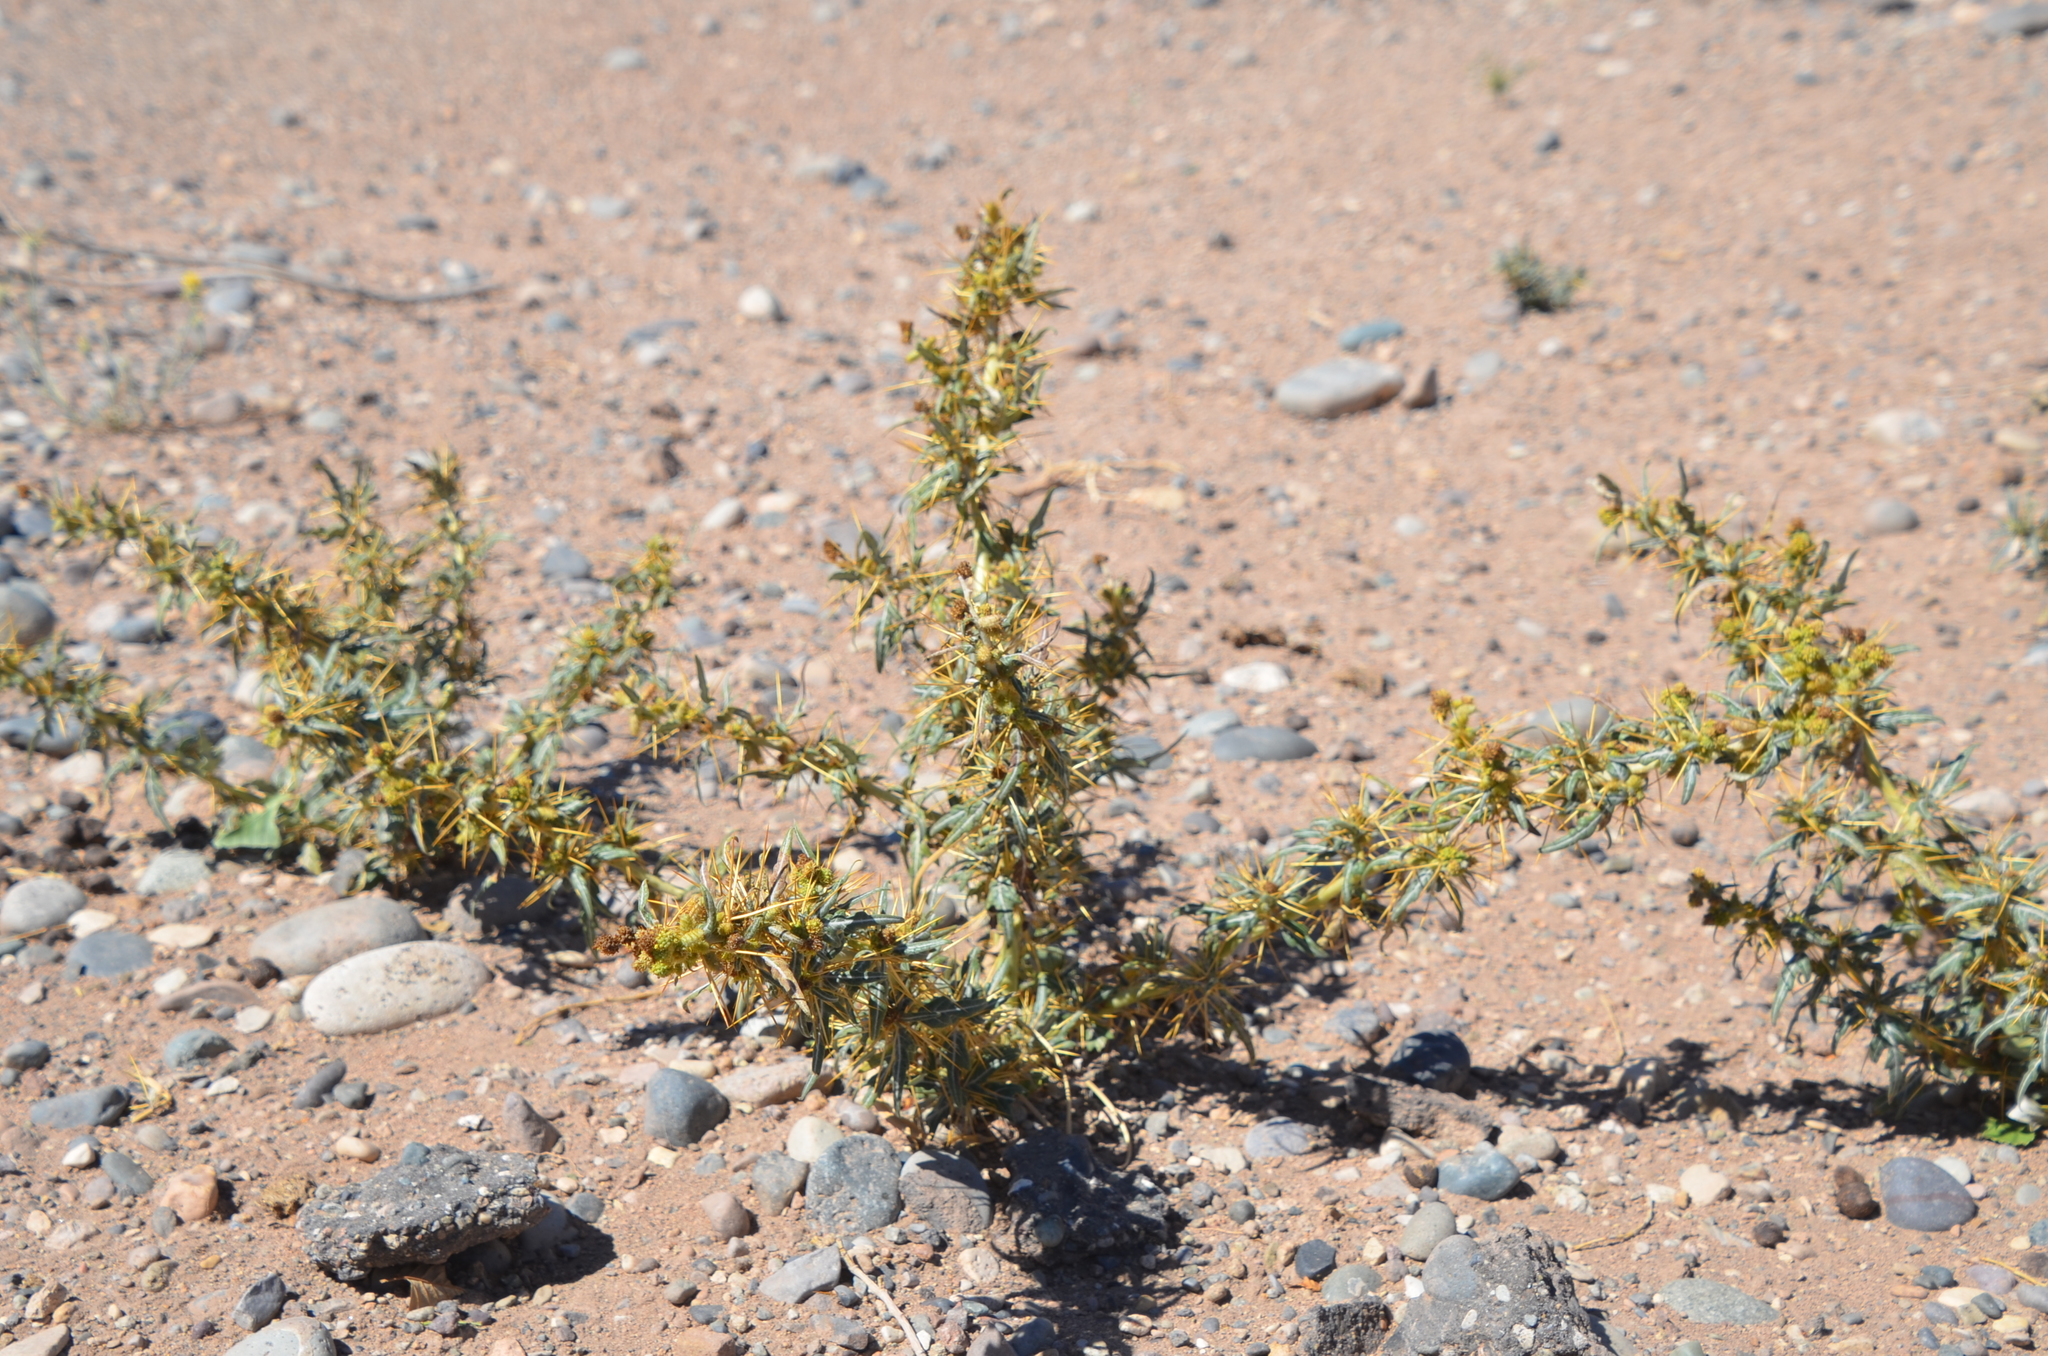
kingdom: Plantae
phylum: Tracheophyta
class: Magnoliopsida
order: Asterales
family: Asteraceae
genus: Xanthium
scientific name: Xanthium spinosum
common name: Spiny cocklebur
